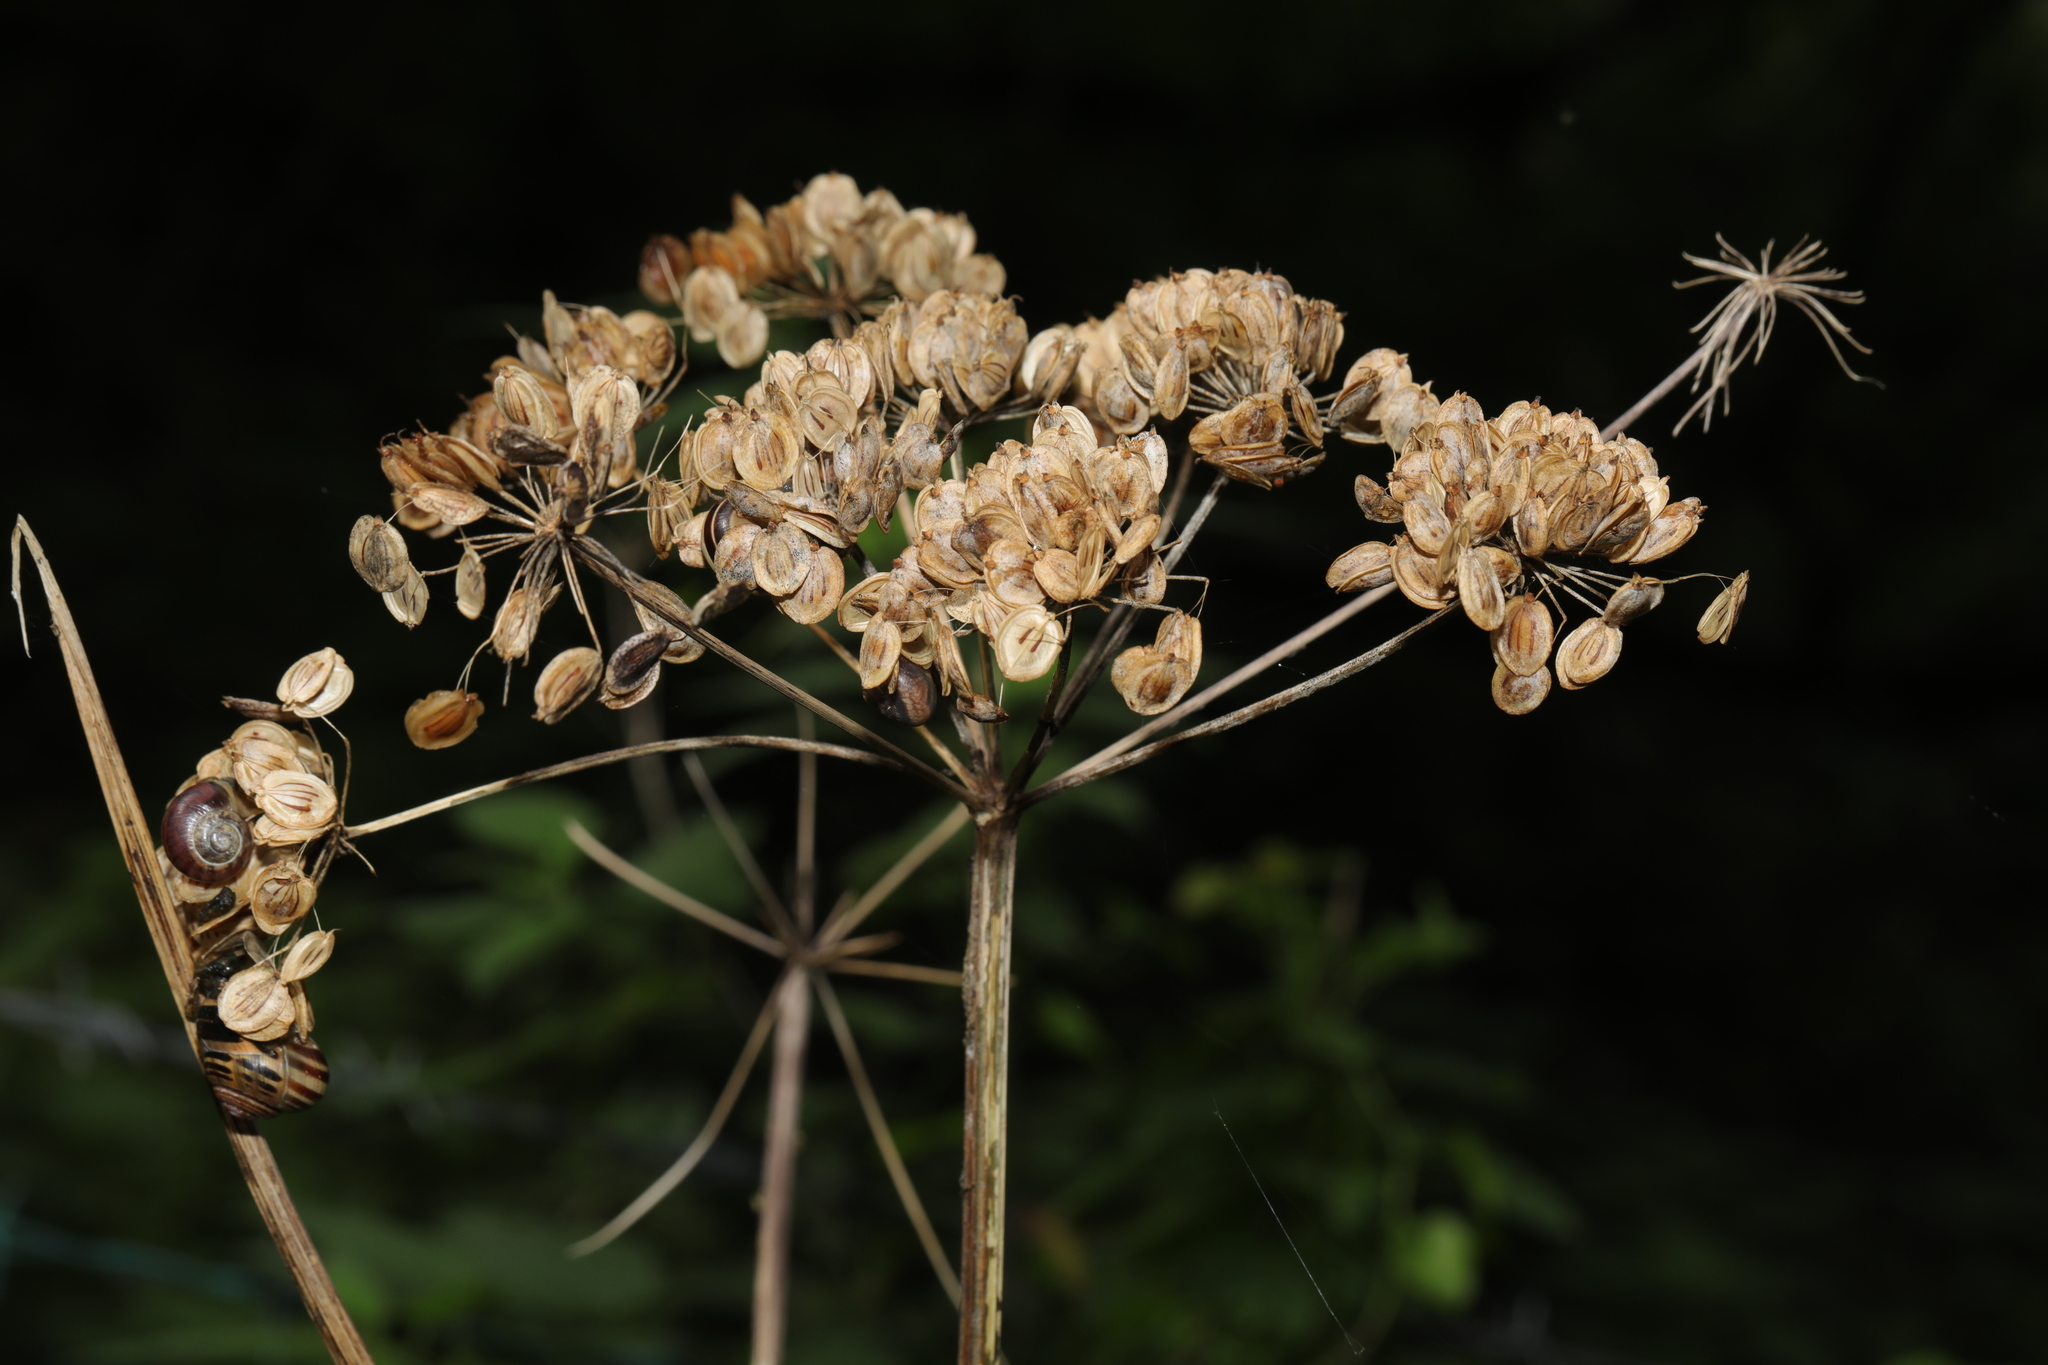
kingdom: Plantae
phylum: Tracheophyta
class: Magnoliopsida
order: Apiales
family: Apiaceae
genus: Heracleum
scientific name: Heracleum sphondylium
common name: Hogweed
